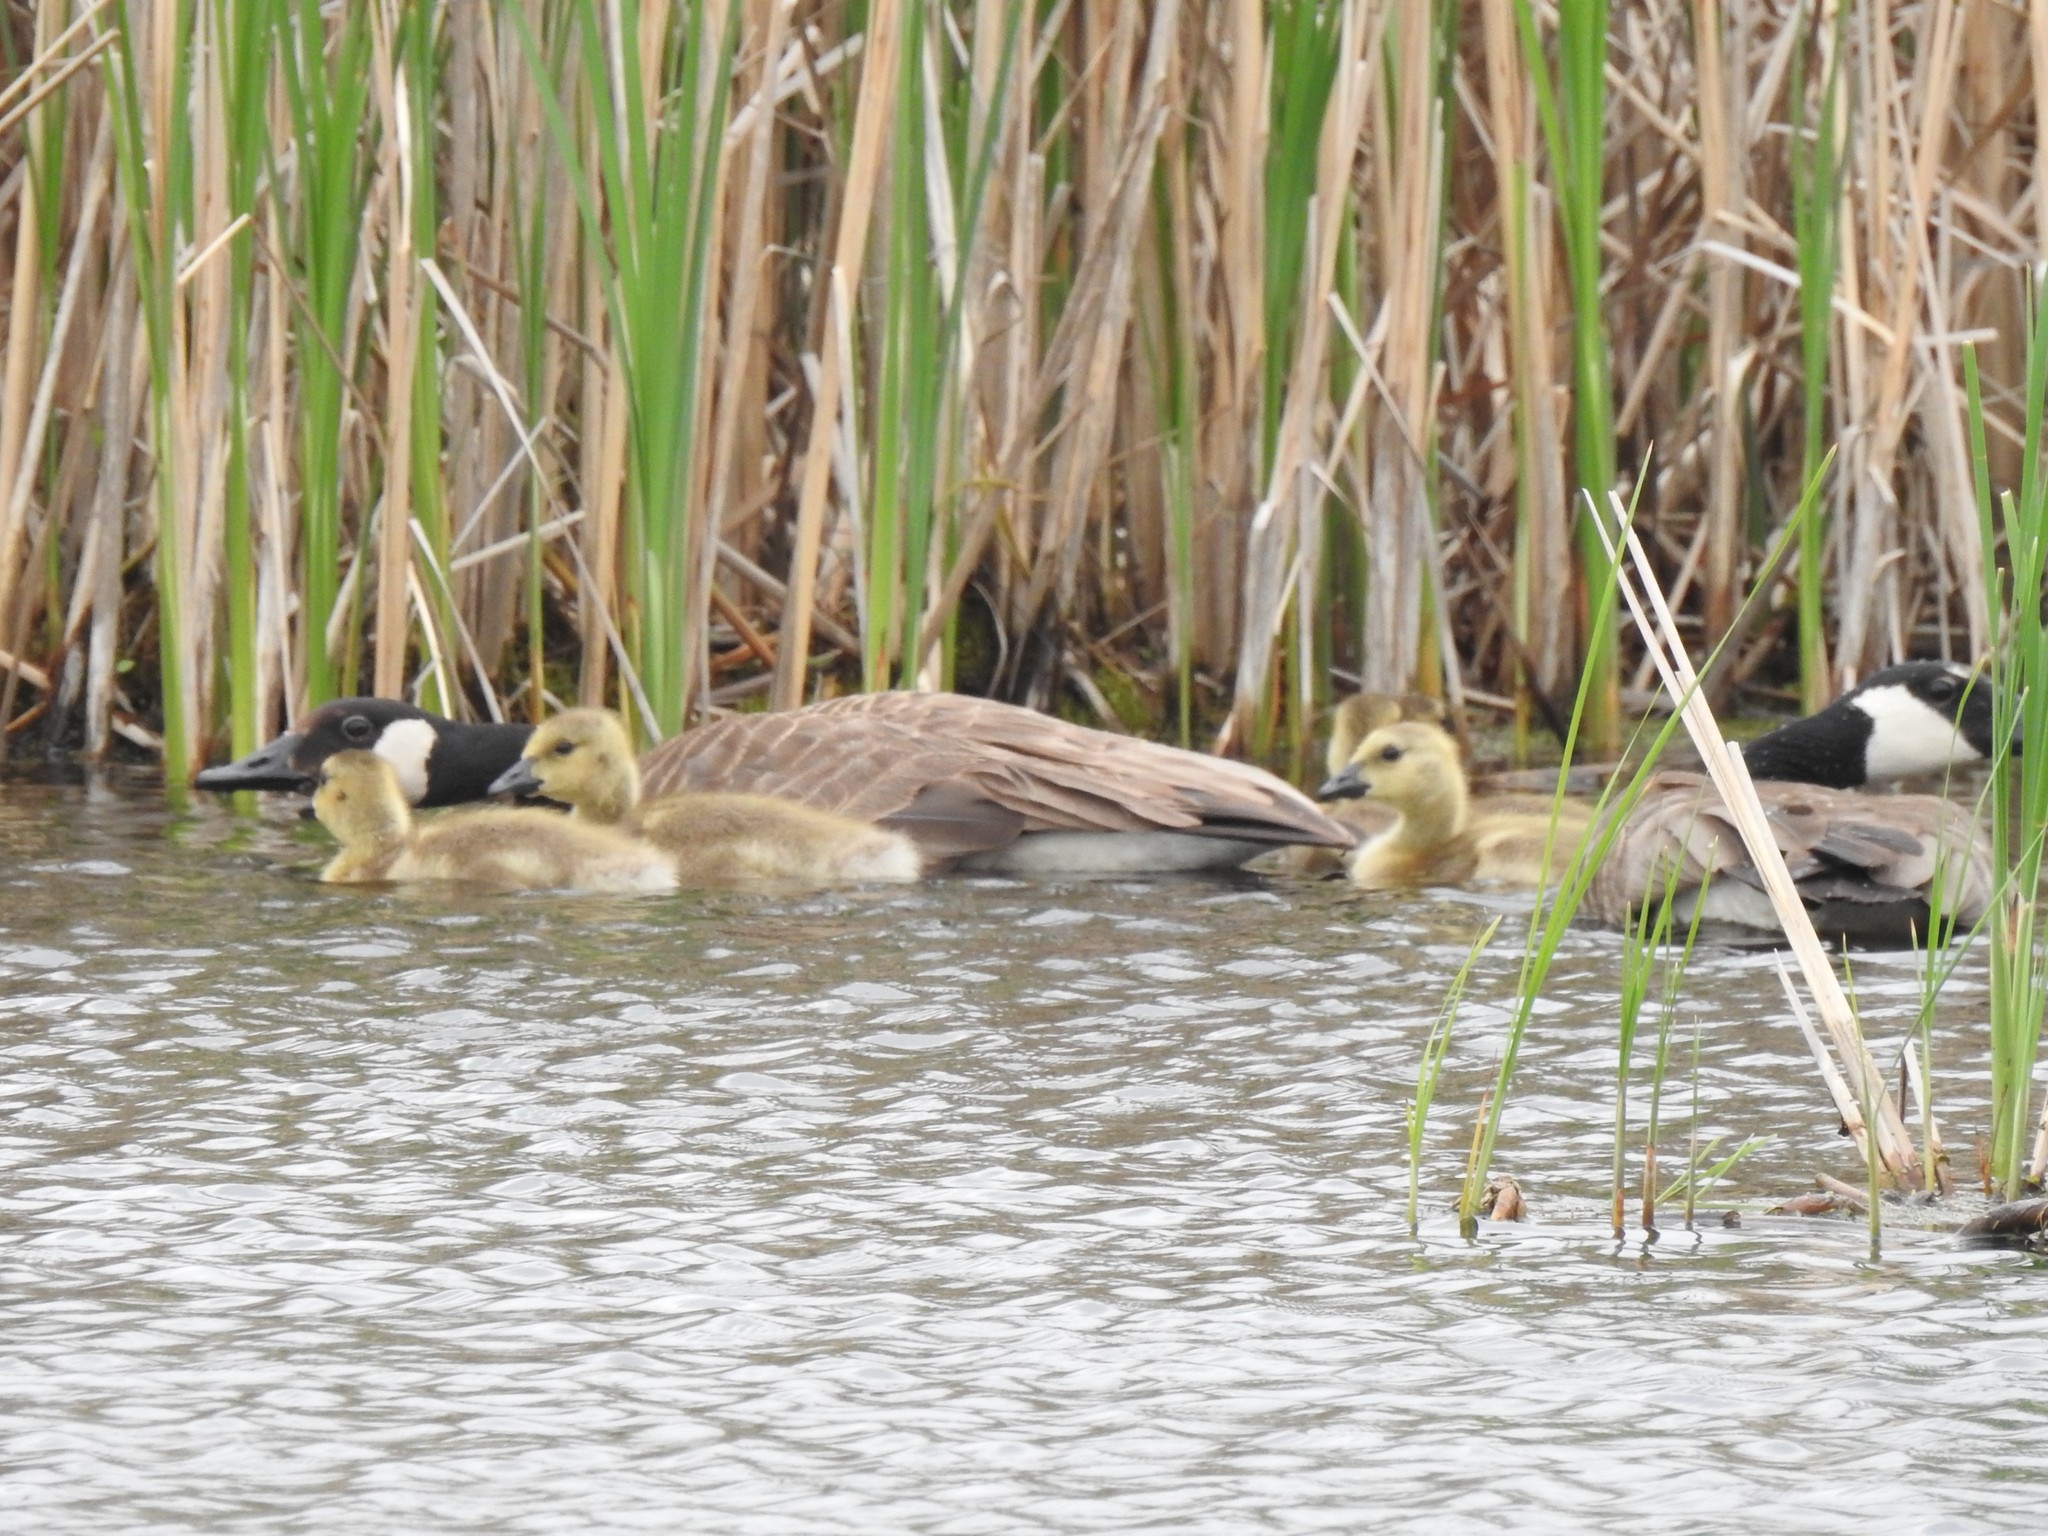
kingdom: Animalia
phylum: Chordata
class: Aves
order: Anseriformes
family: Anatidae
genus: Branta
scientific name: Branta canadensis
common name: Canada goose
